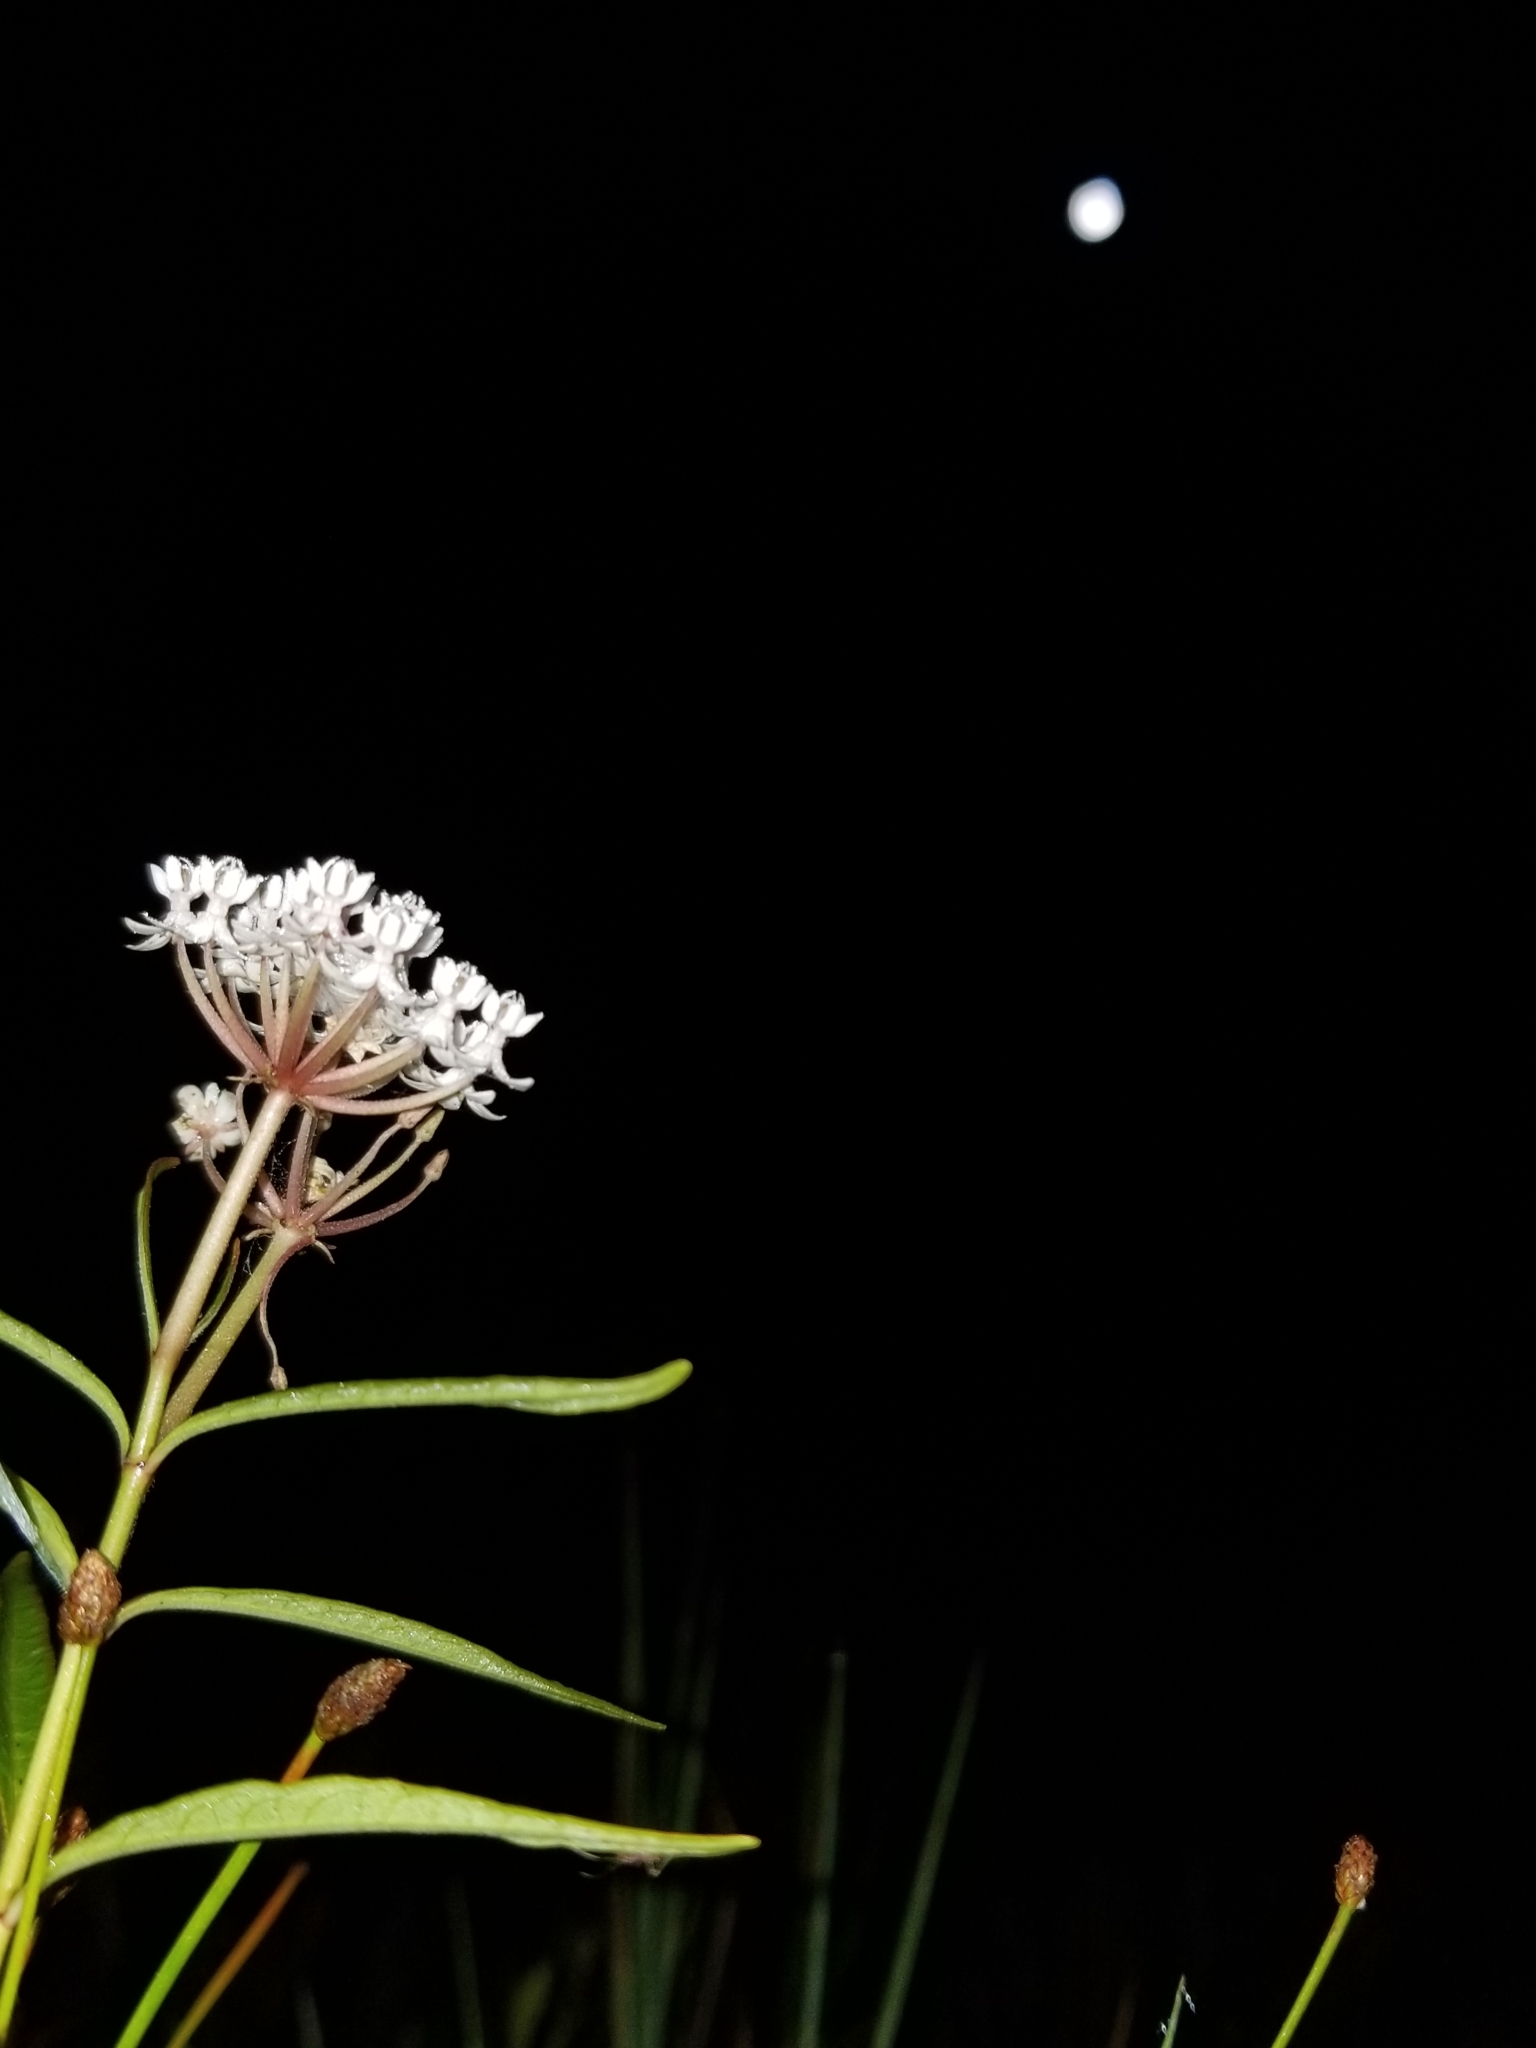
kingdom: Plantae
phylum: Tracheophyta
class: Magnoliopsida
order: Gentianales
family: Apocynaceae
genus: Asclepias
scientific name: Asclepias perennis
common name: Smooth-seed milkweed
